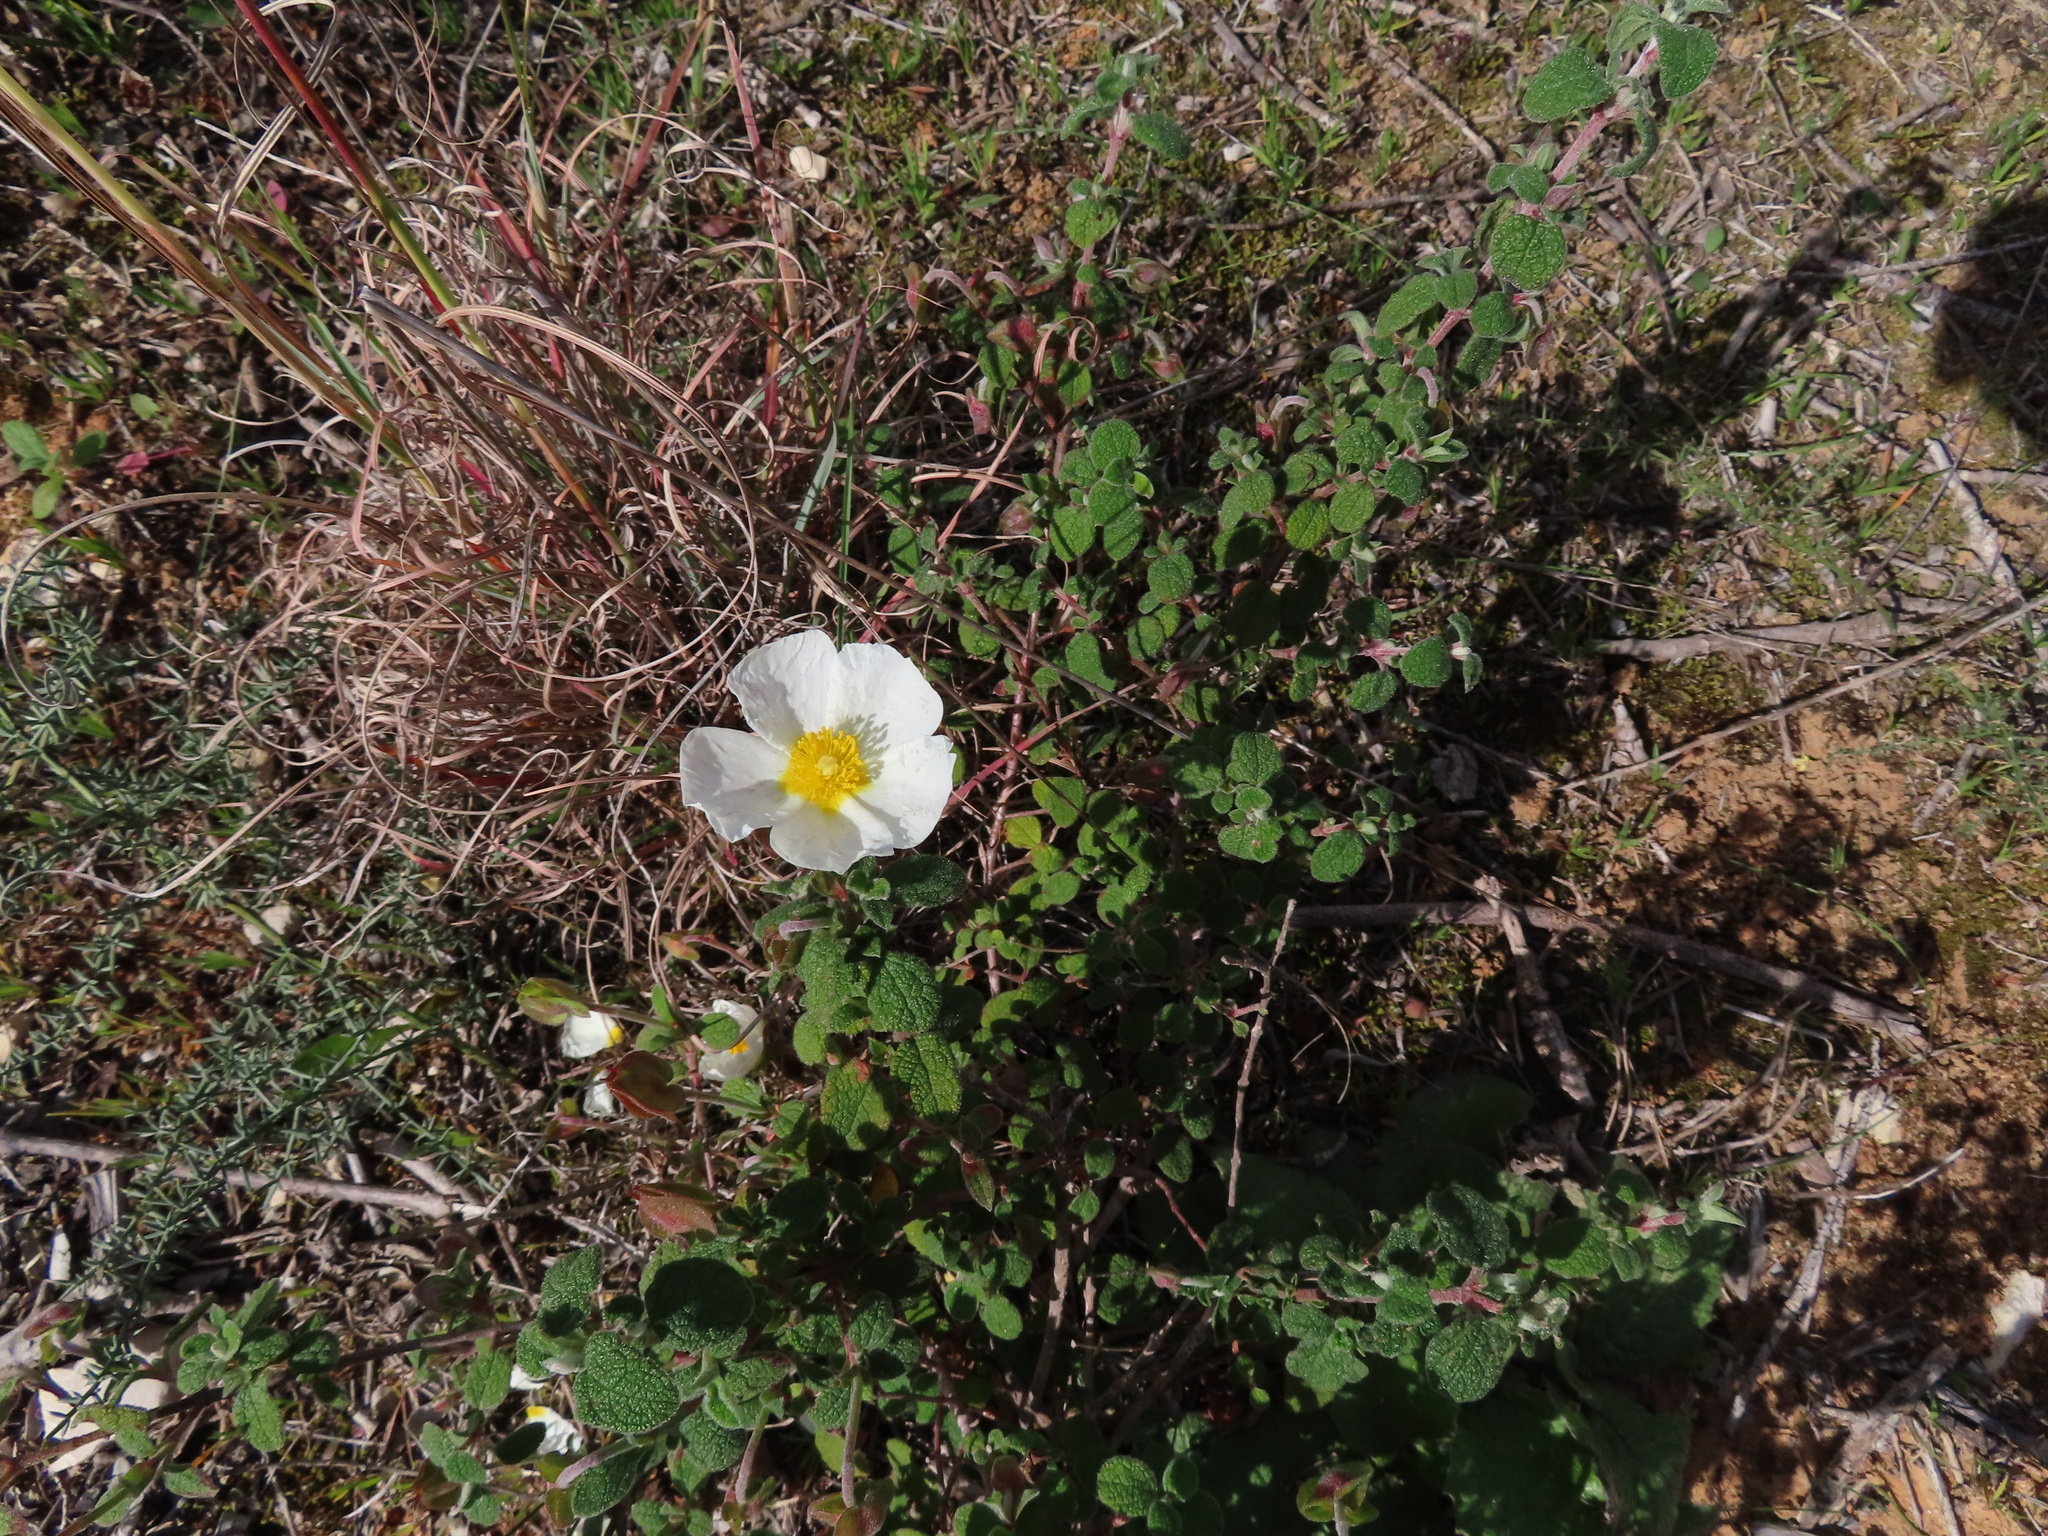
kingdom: Plantae
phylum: Tracheophyta
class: Magnoliopsida
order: Malvales
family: Cistaceae
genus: Cistus
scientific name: Cistus salviifolius
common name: Salvia cistus
